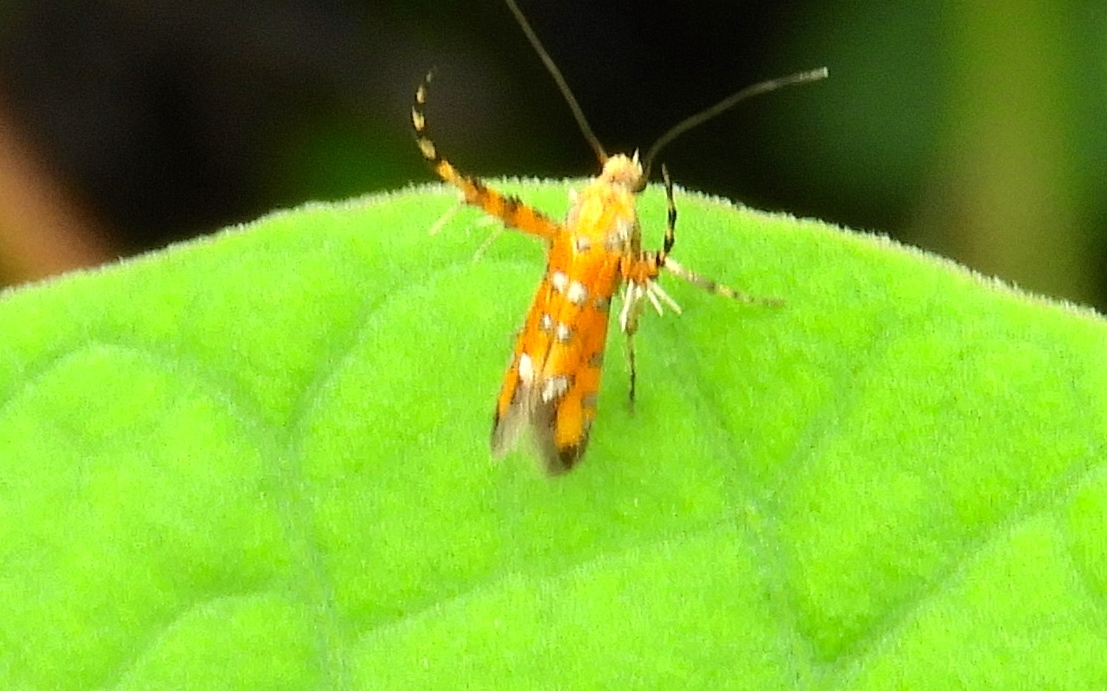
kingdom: Animalia
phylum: Arthropoda
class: Insecta
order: Lepidoptera
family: Heliodinidae
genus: Heliodines
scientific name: Heliodines
